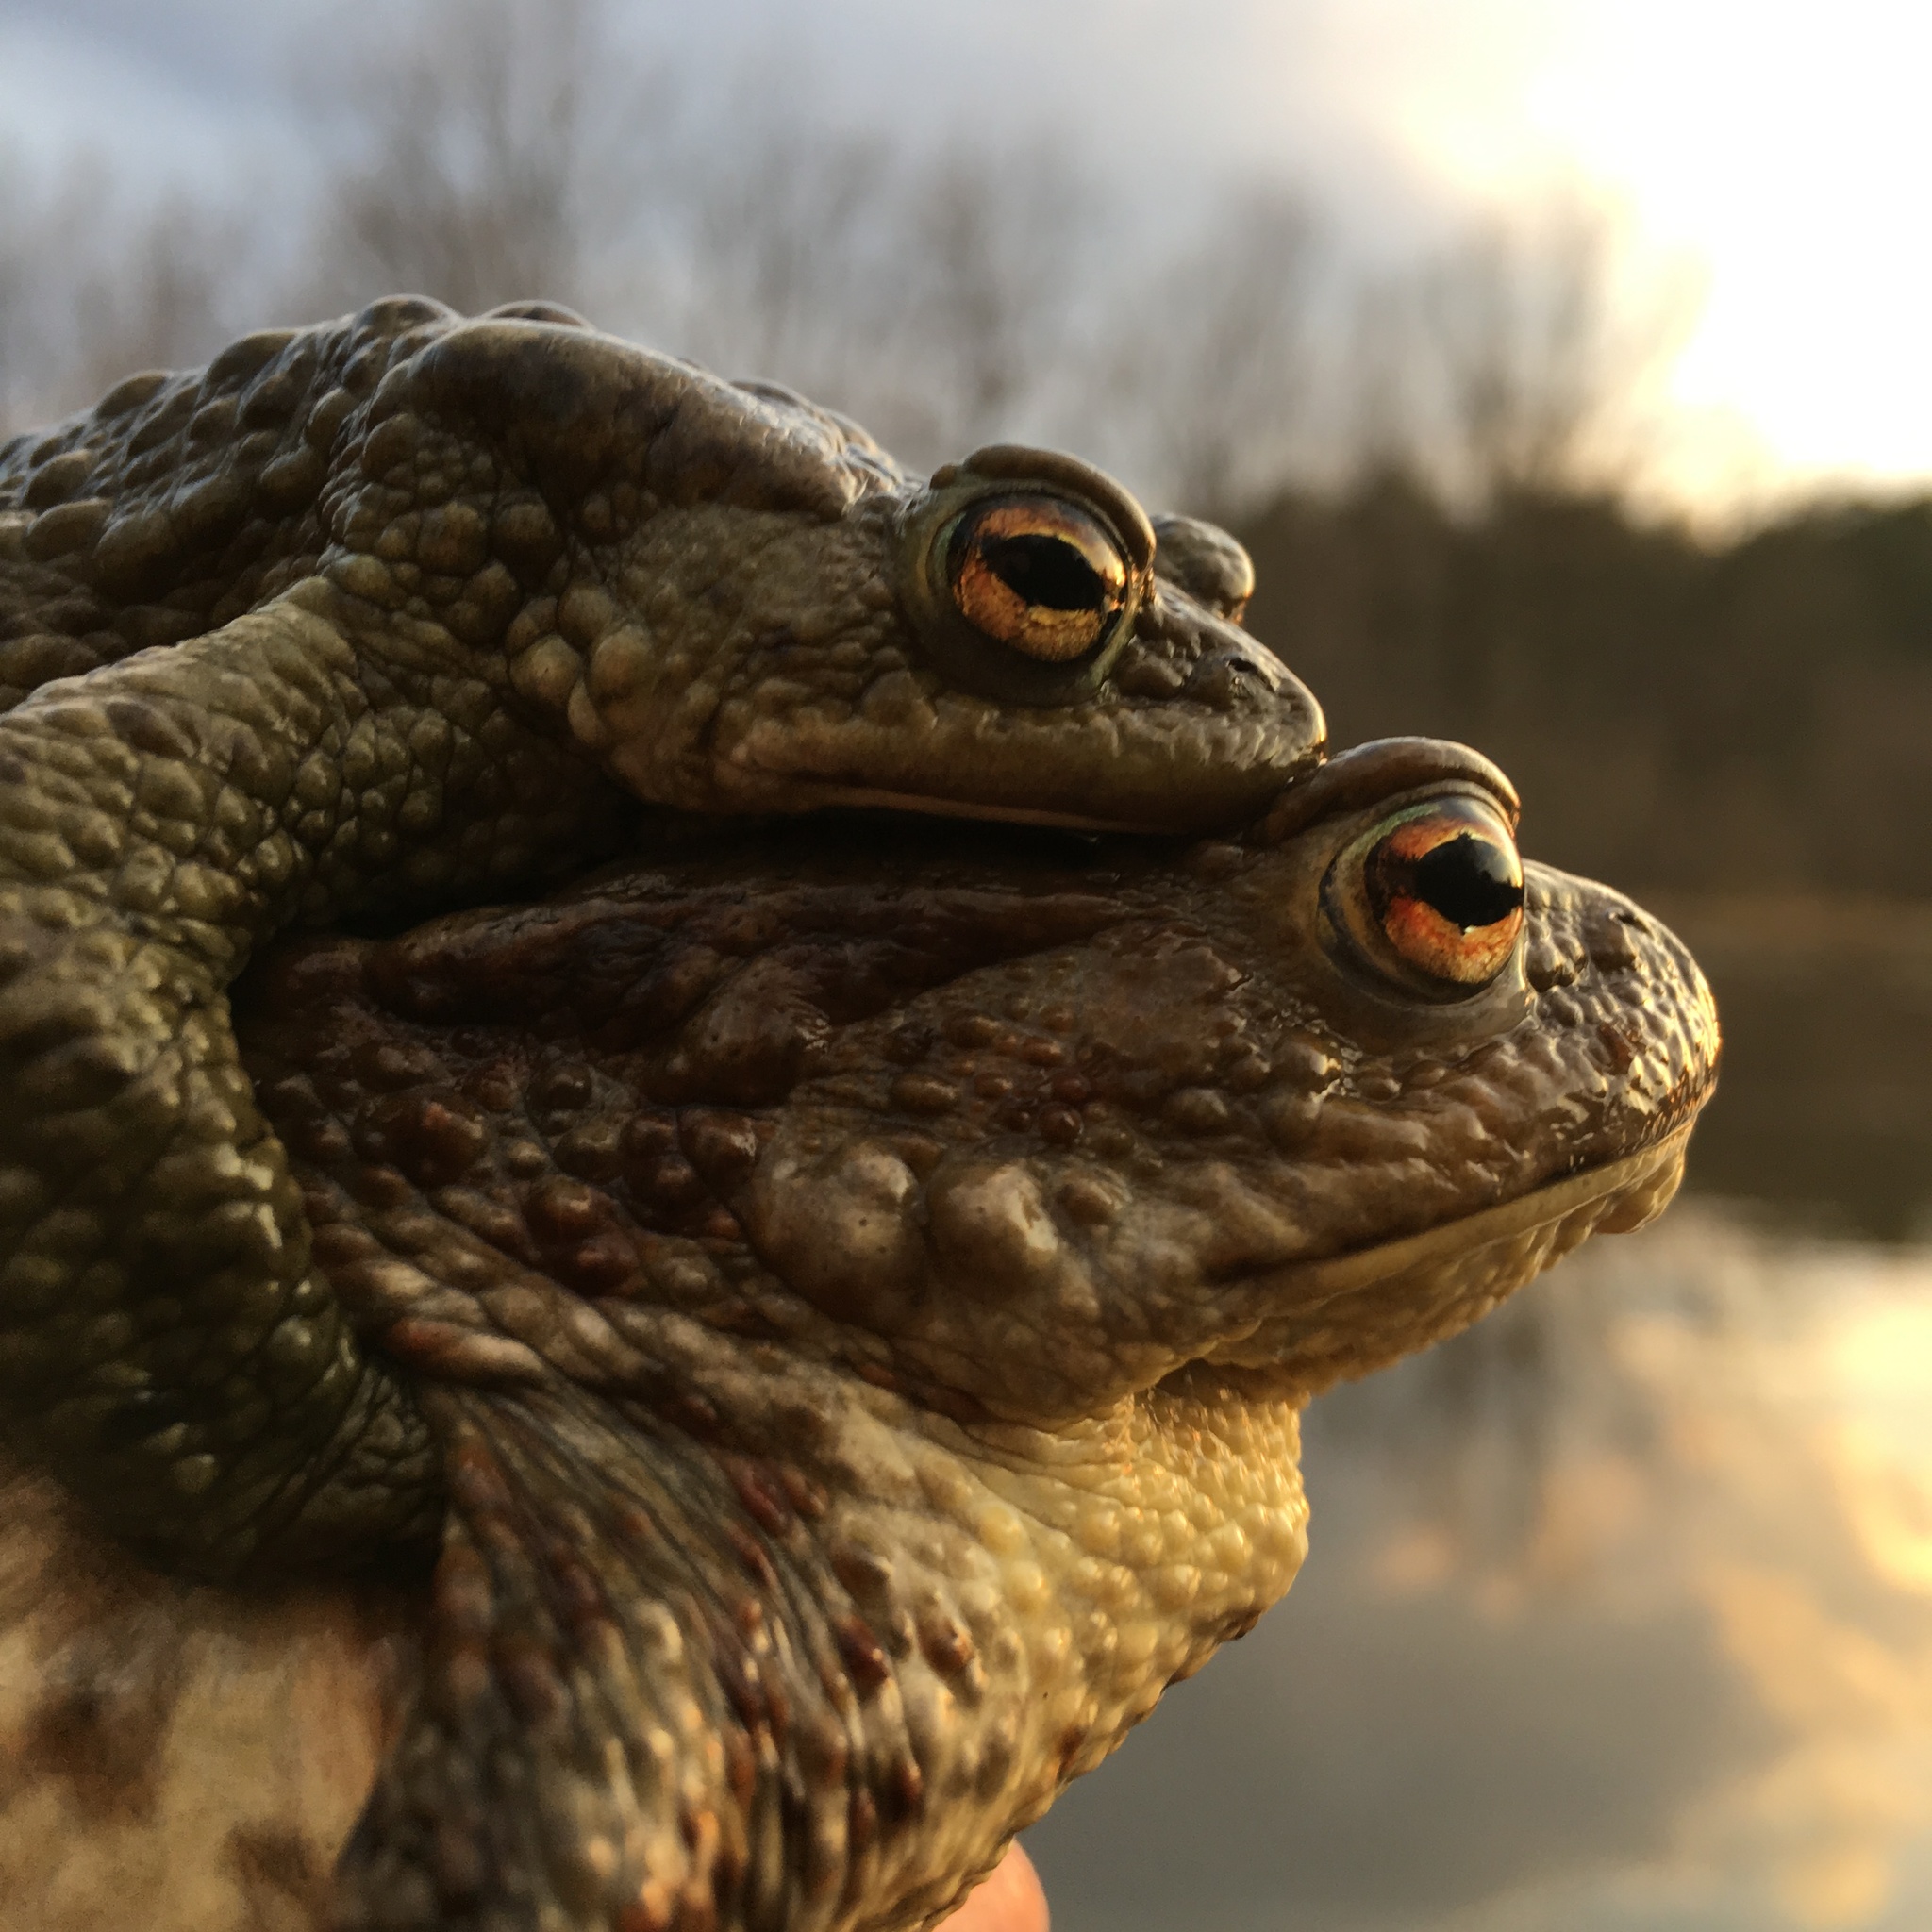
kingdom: Animalia
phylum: Chordata
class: Amphibia
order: Anura
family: Bufonidae
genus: Bufo
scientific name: Bufo bufo
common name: Common toad
